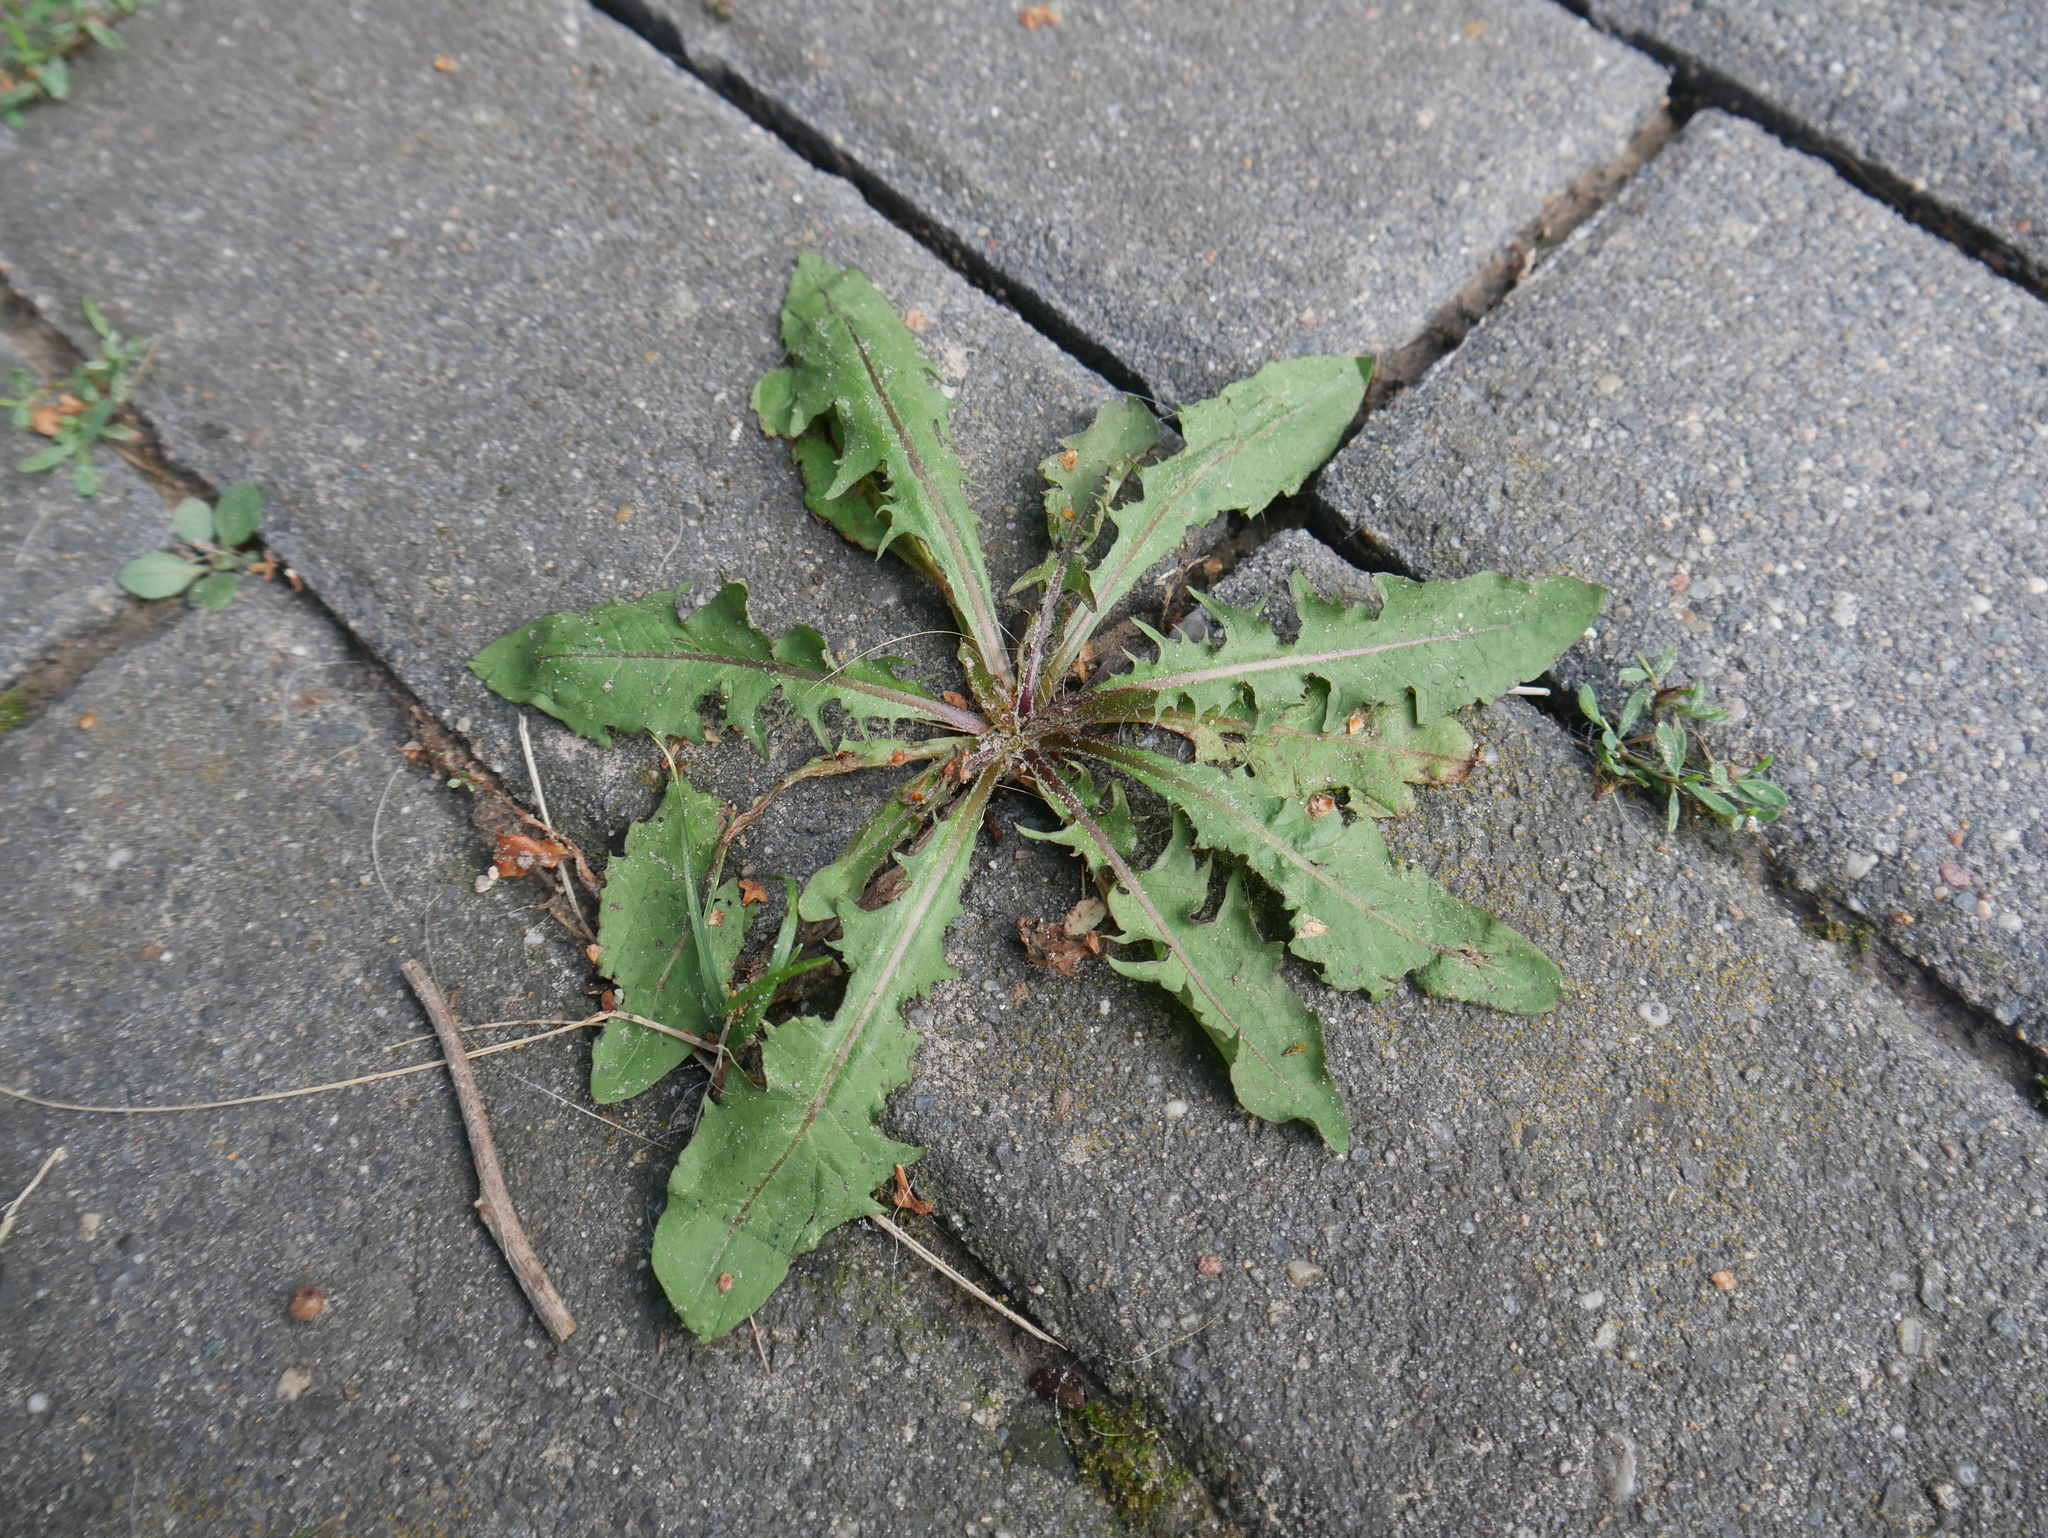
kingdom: Plantae
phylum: Tracheophyta
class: Magnoliopsida
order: Asterales
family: Asteraceae
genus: Taraxacum
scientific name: Taraxacum officinale
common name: Common dandelion
